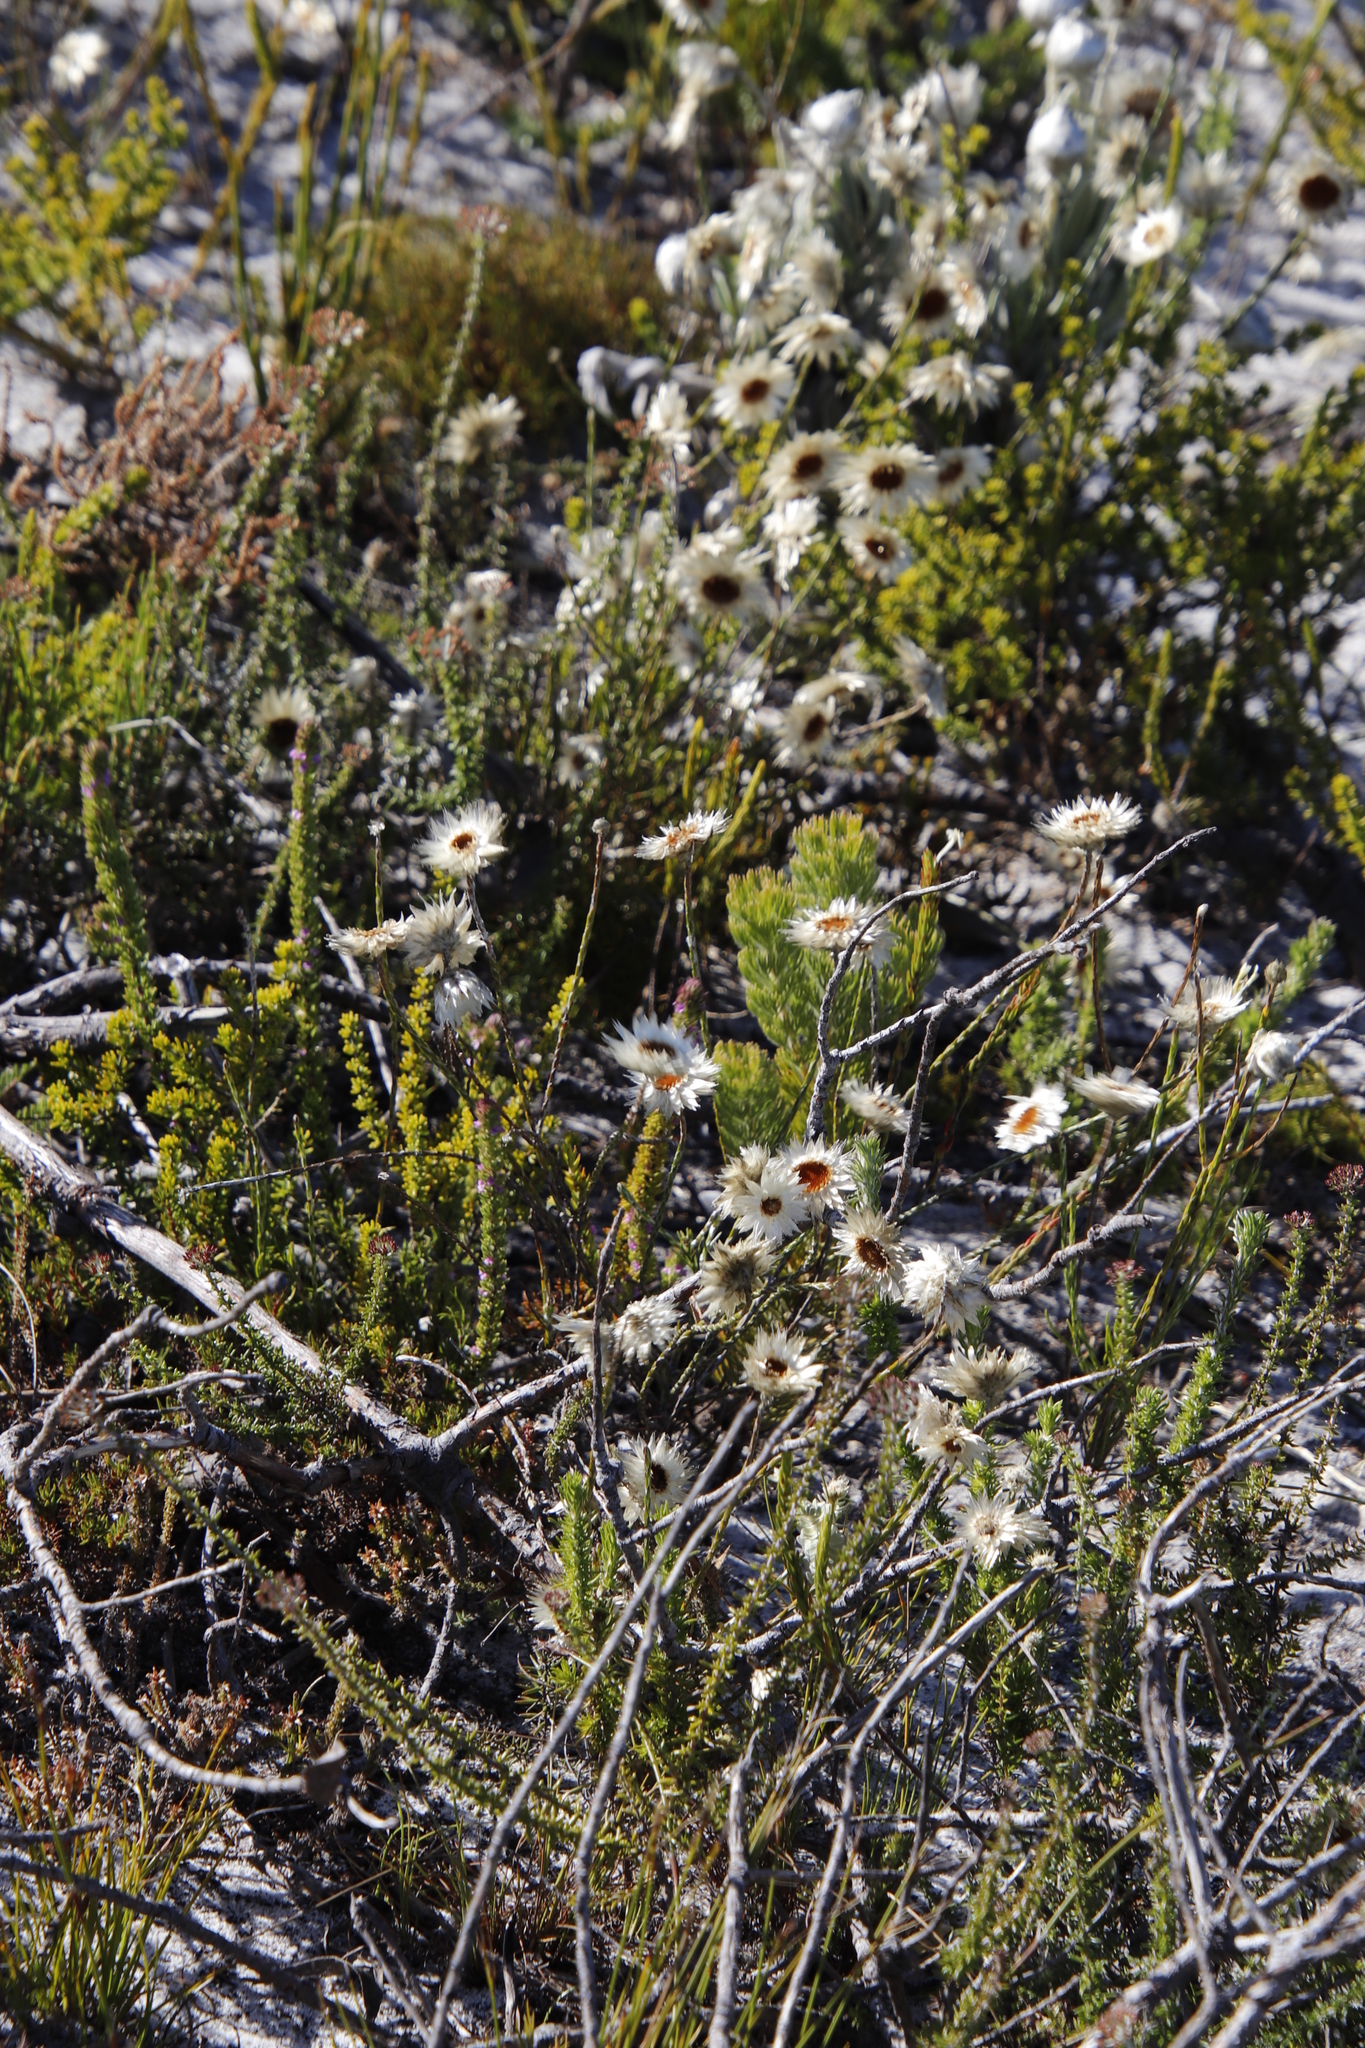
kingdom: Plantae
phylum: Tracheophyta
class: Magnoliopsida
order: Asterales
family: Asteraceae
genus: Edmondia
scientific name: Edmondia sesamoides
